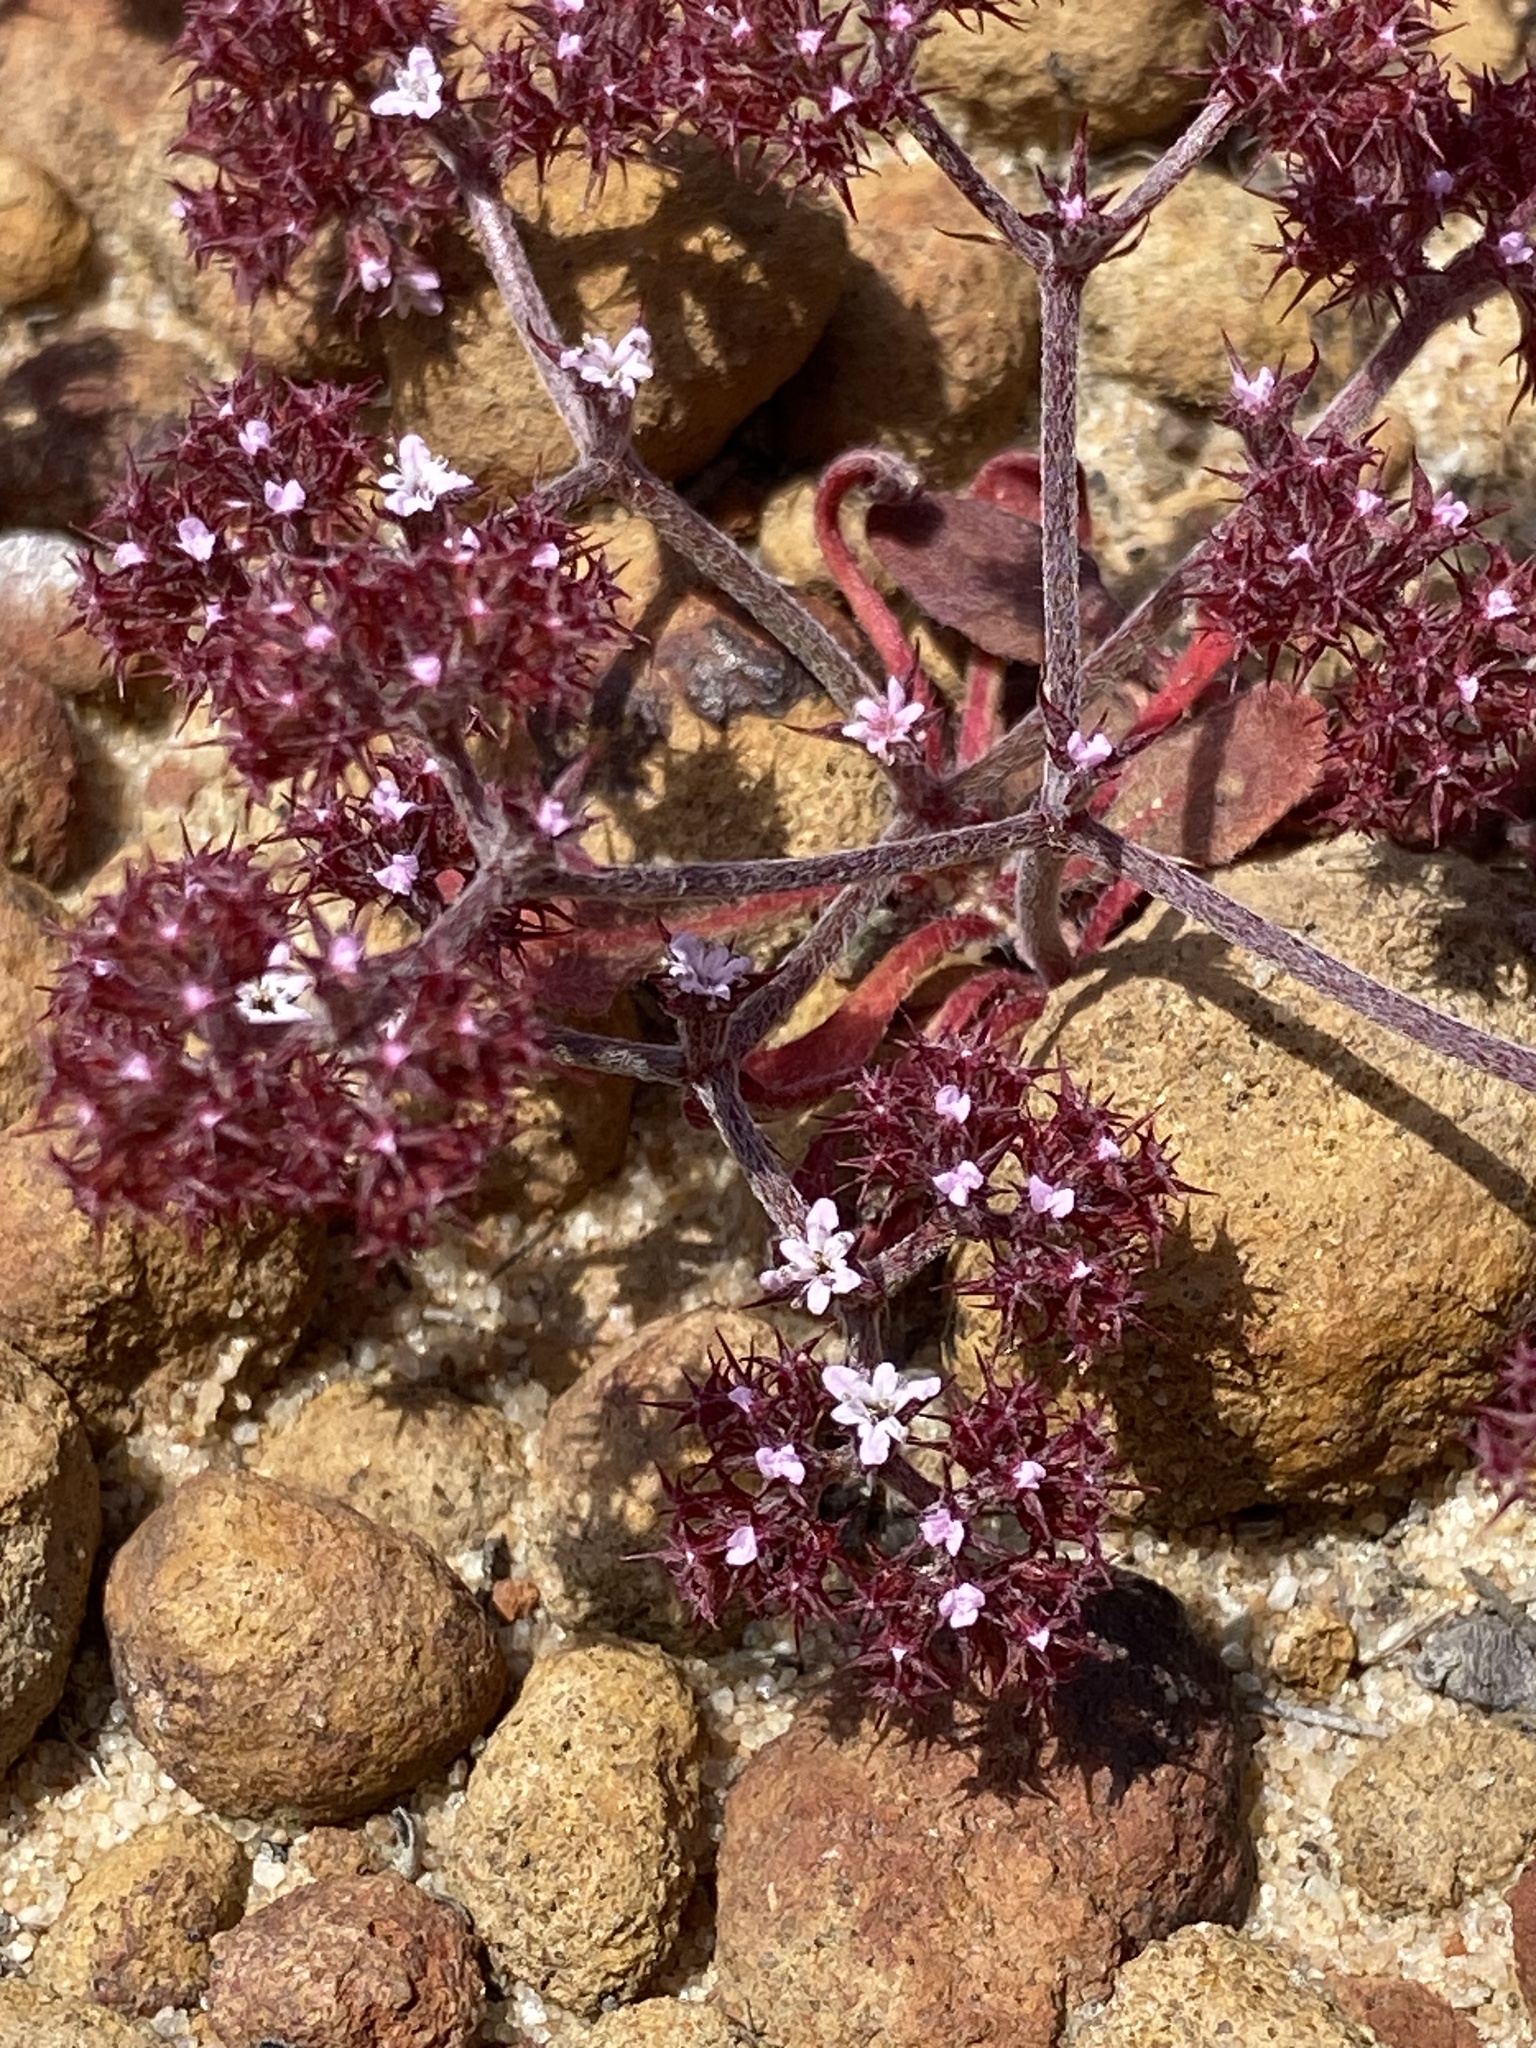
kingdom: Plantae
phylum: Tracheophyta
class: Magnoliopsida
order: Caryophyllales
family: Polygonaceae
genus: Chorizanthe
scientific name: Chorizanthe staticoides
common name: Turkish rugging
